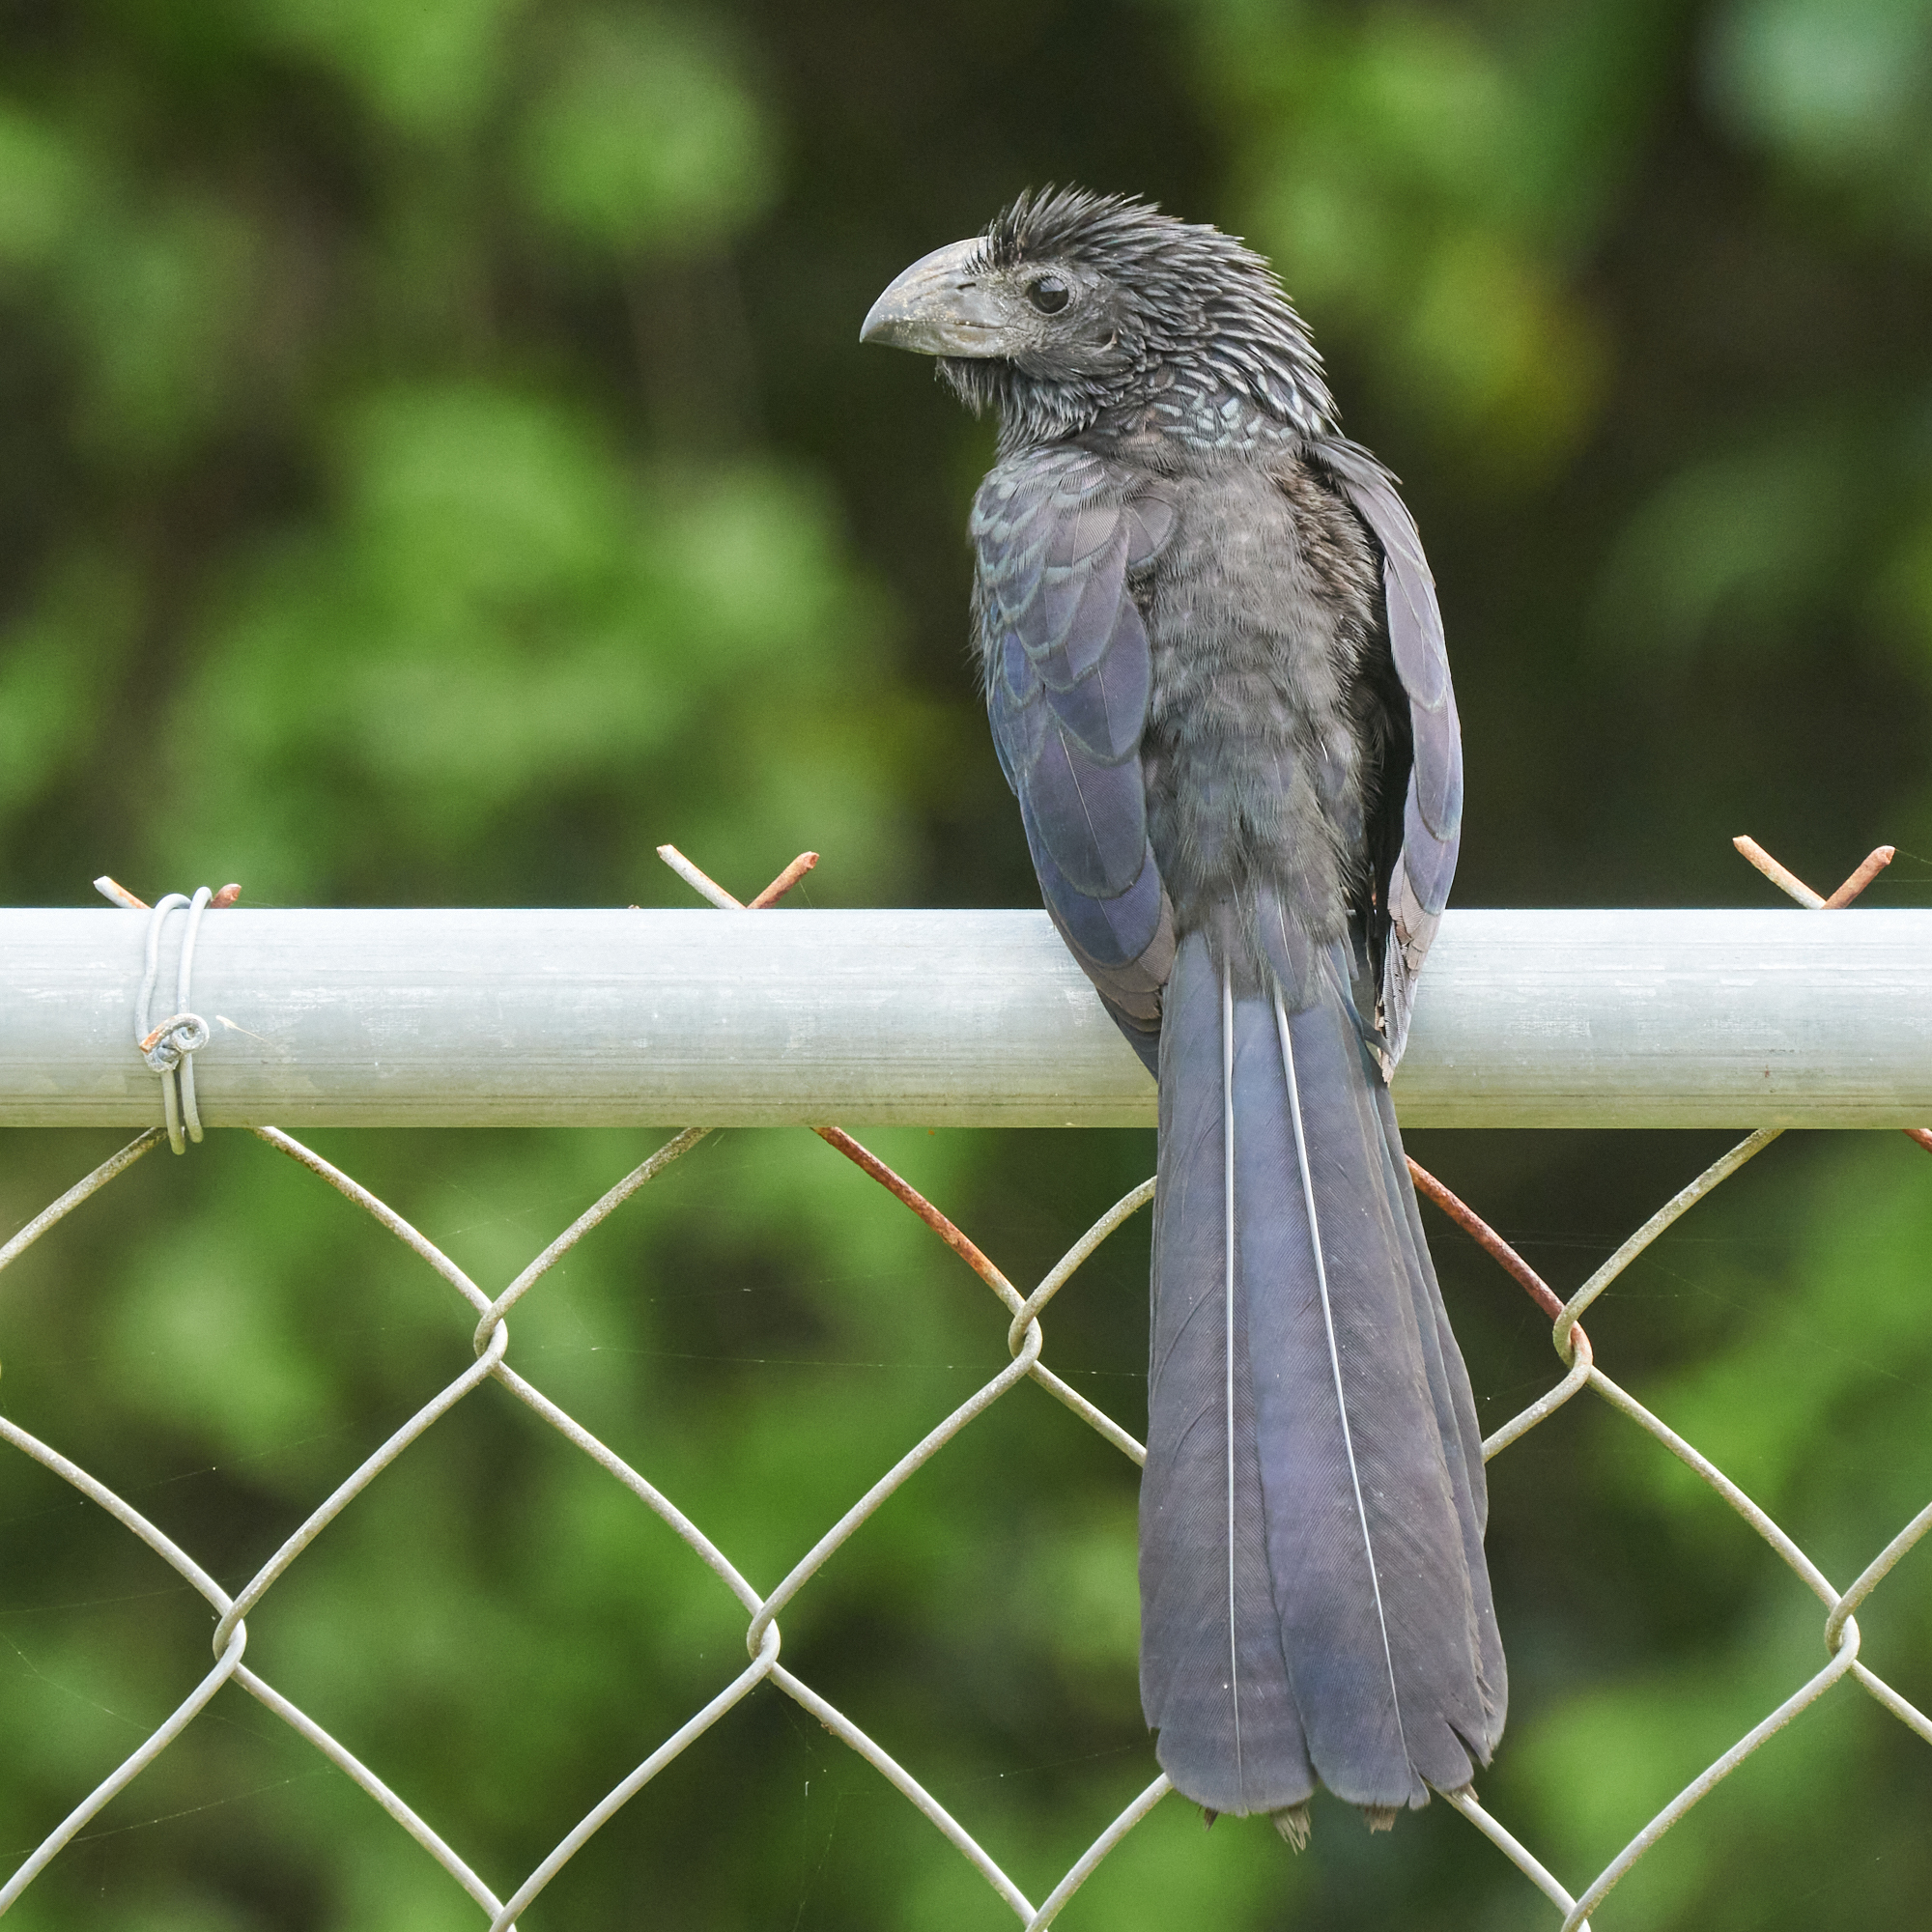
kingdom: Animalia
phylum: Chordata
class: Aves
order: Cuculiformes
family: Cuculidae
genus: Crotophaga
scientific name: Crotophaga sulcirostris
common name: Groove-billed ani
